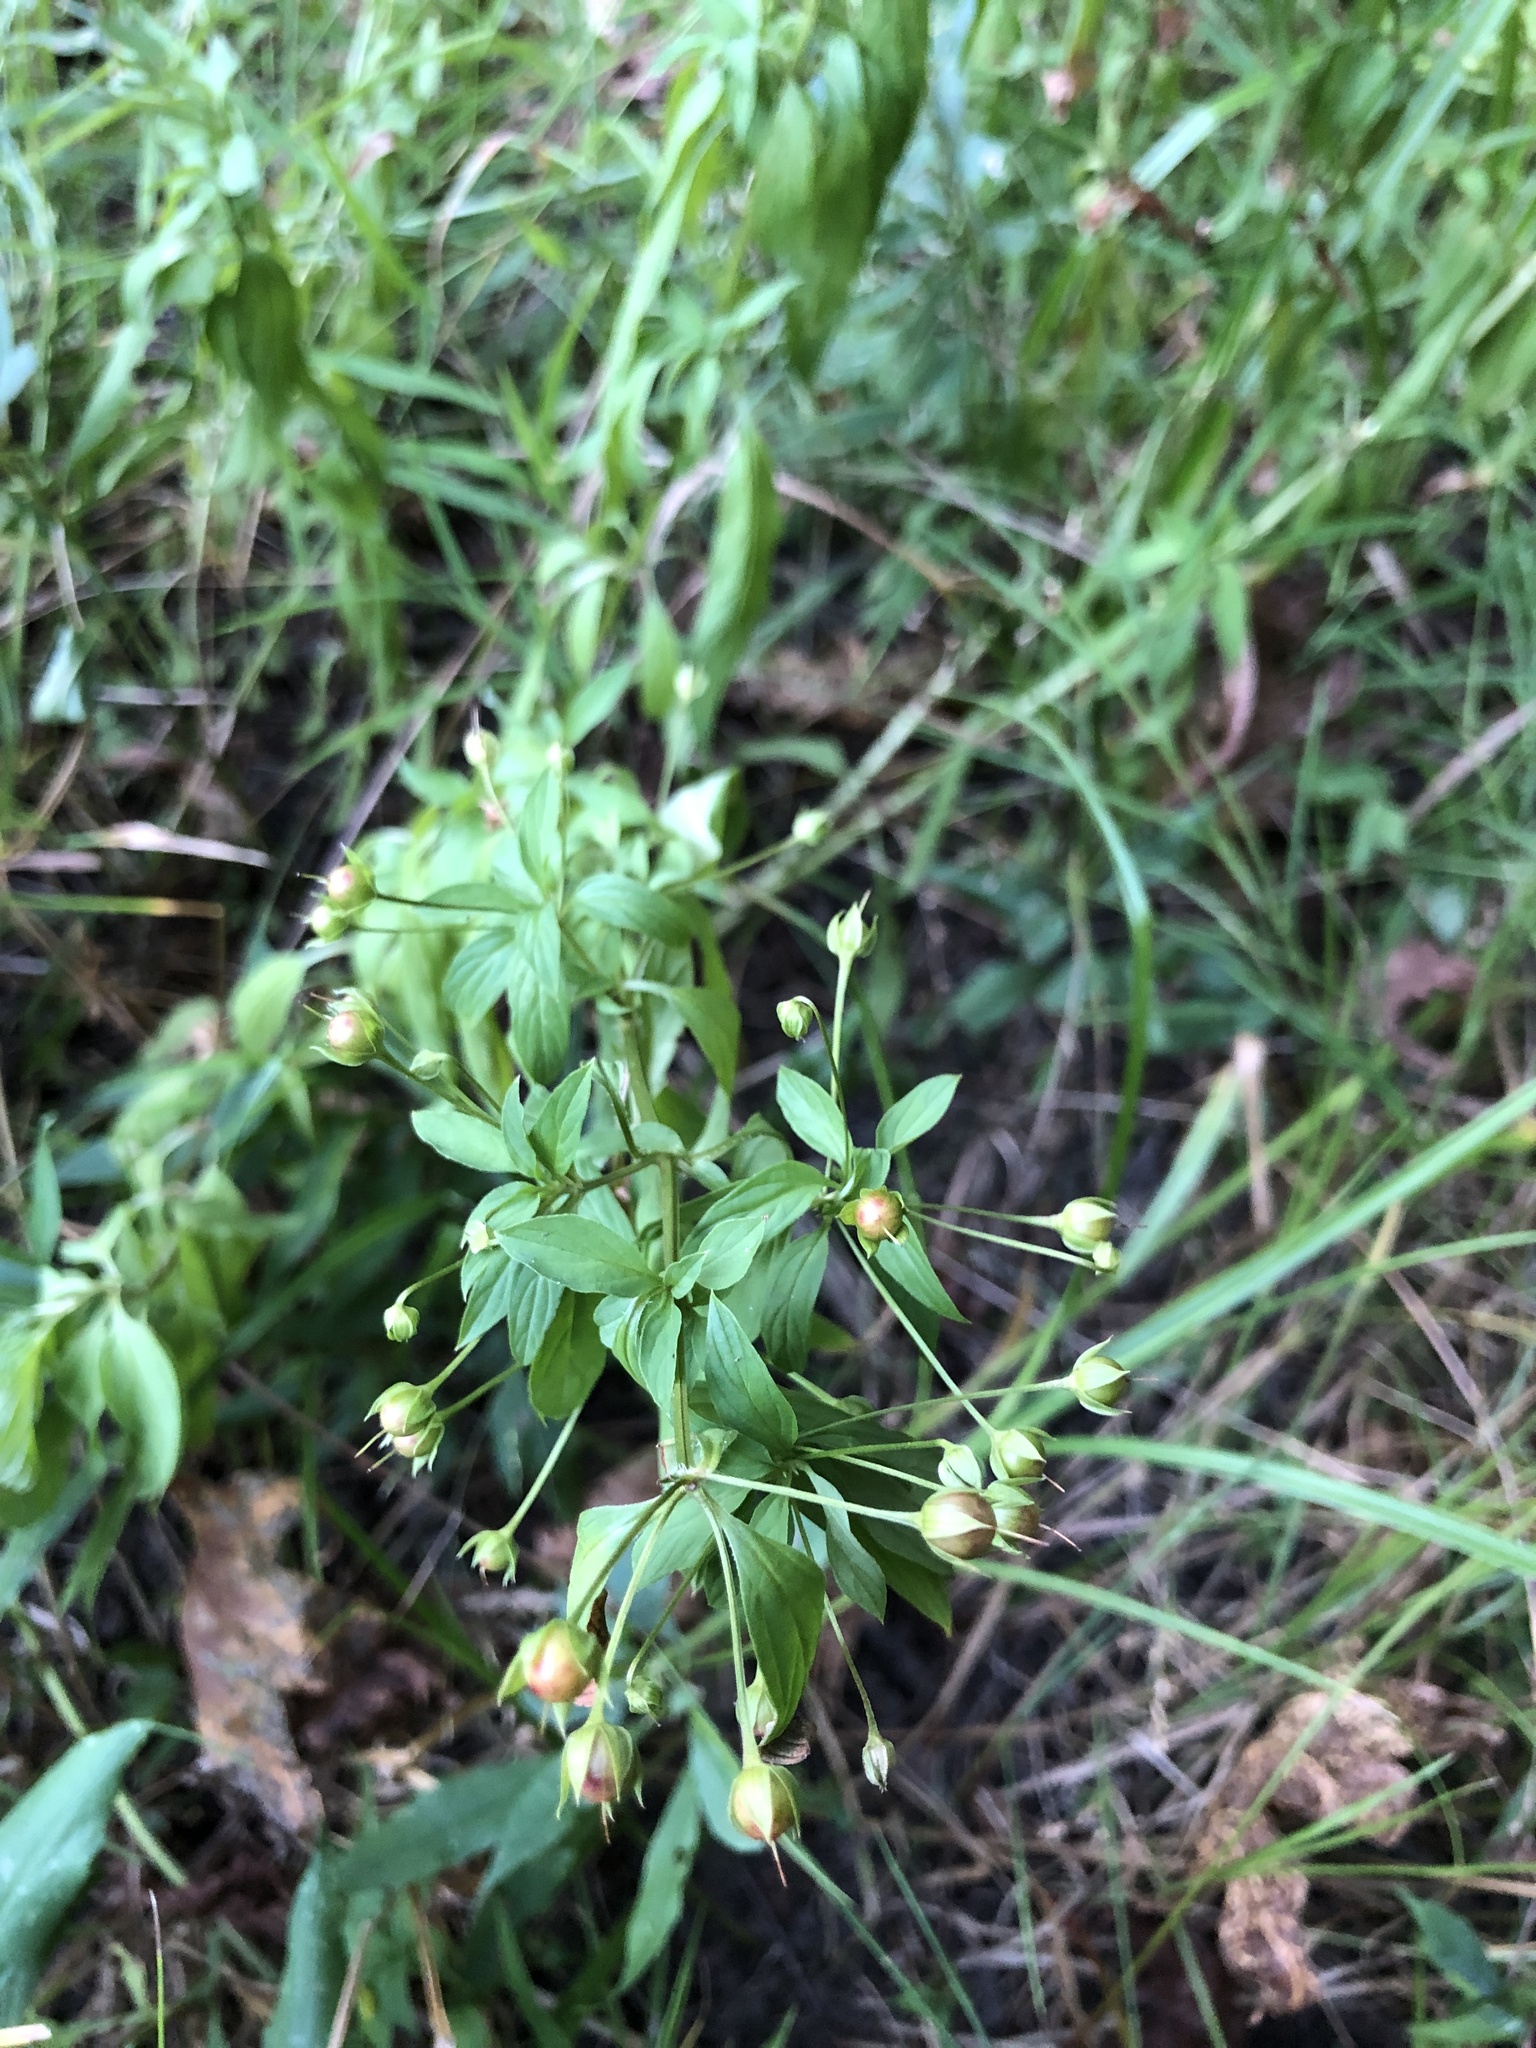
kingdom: Plantae
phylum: Tracheophyta
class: Magnoliopsida
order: Ericales
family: Primulaceae
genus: Lysimachia
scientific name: Lysimachia ciliata
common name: Fringed loosestrife
